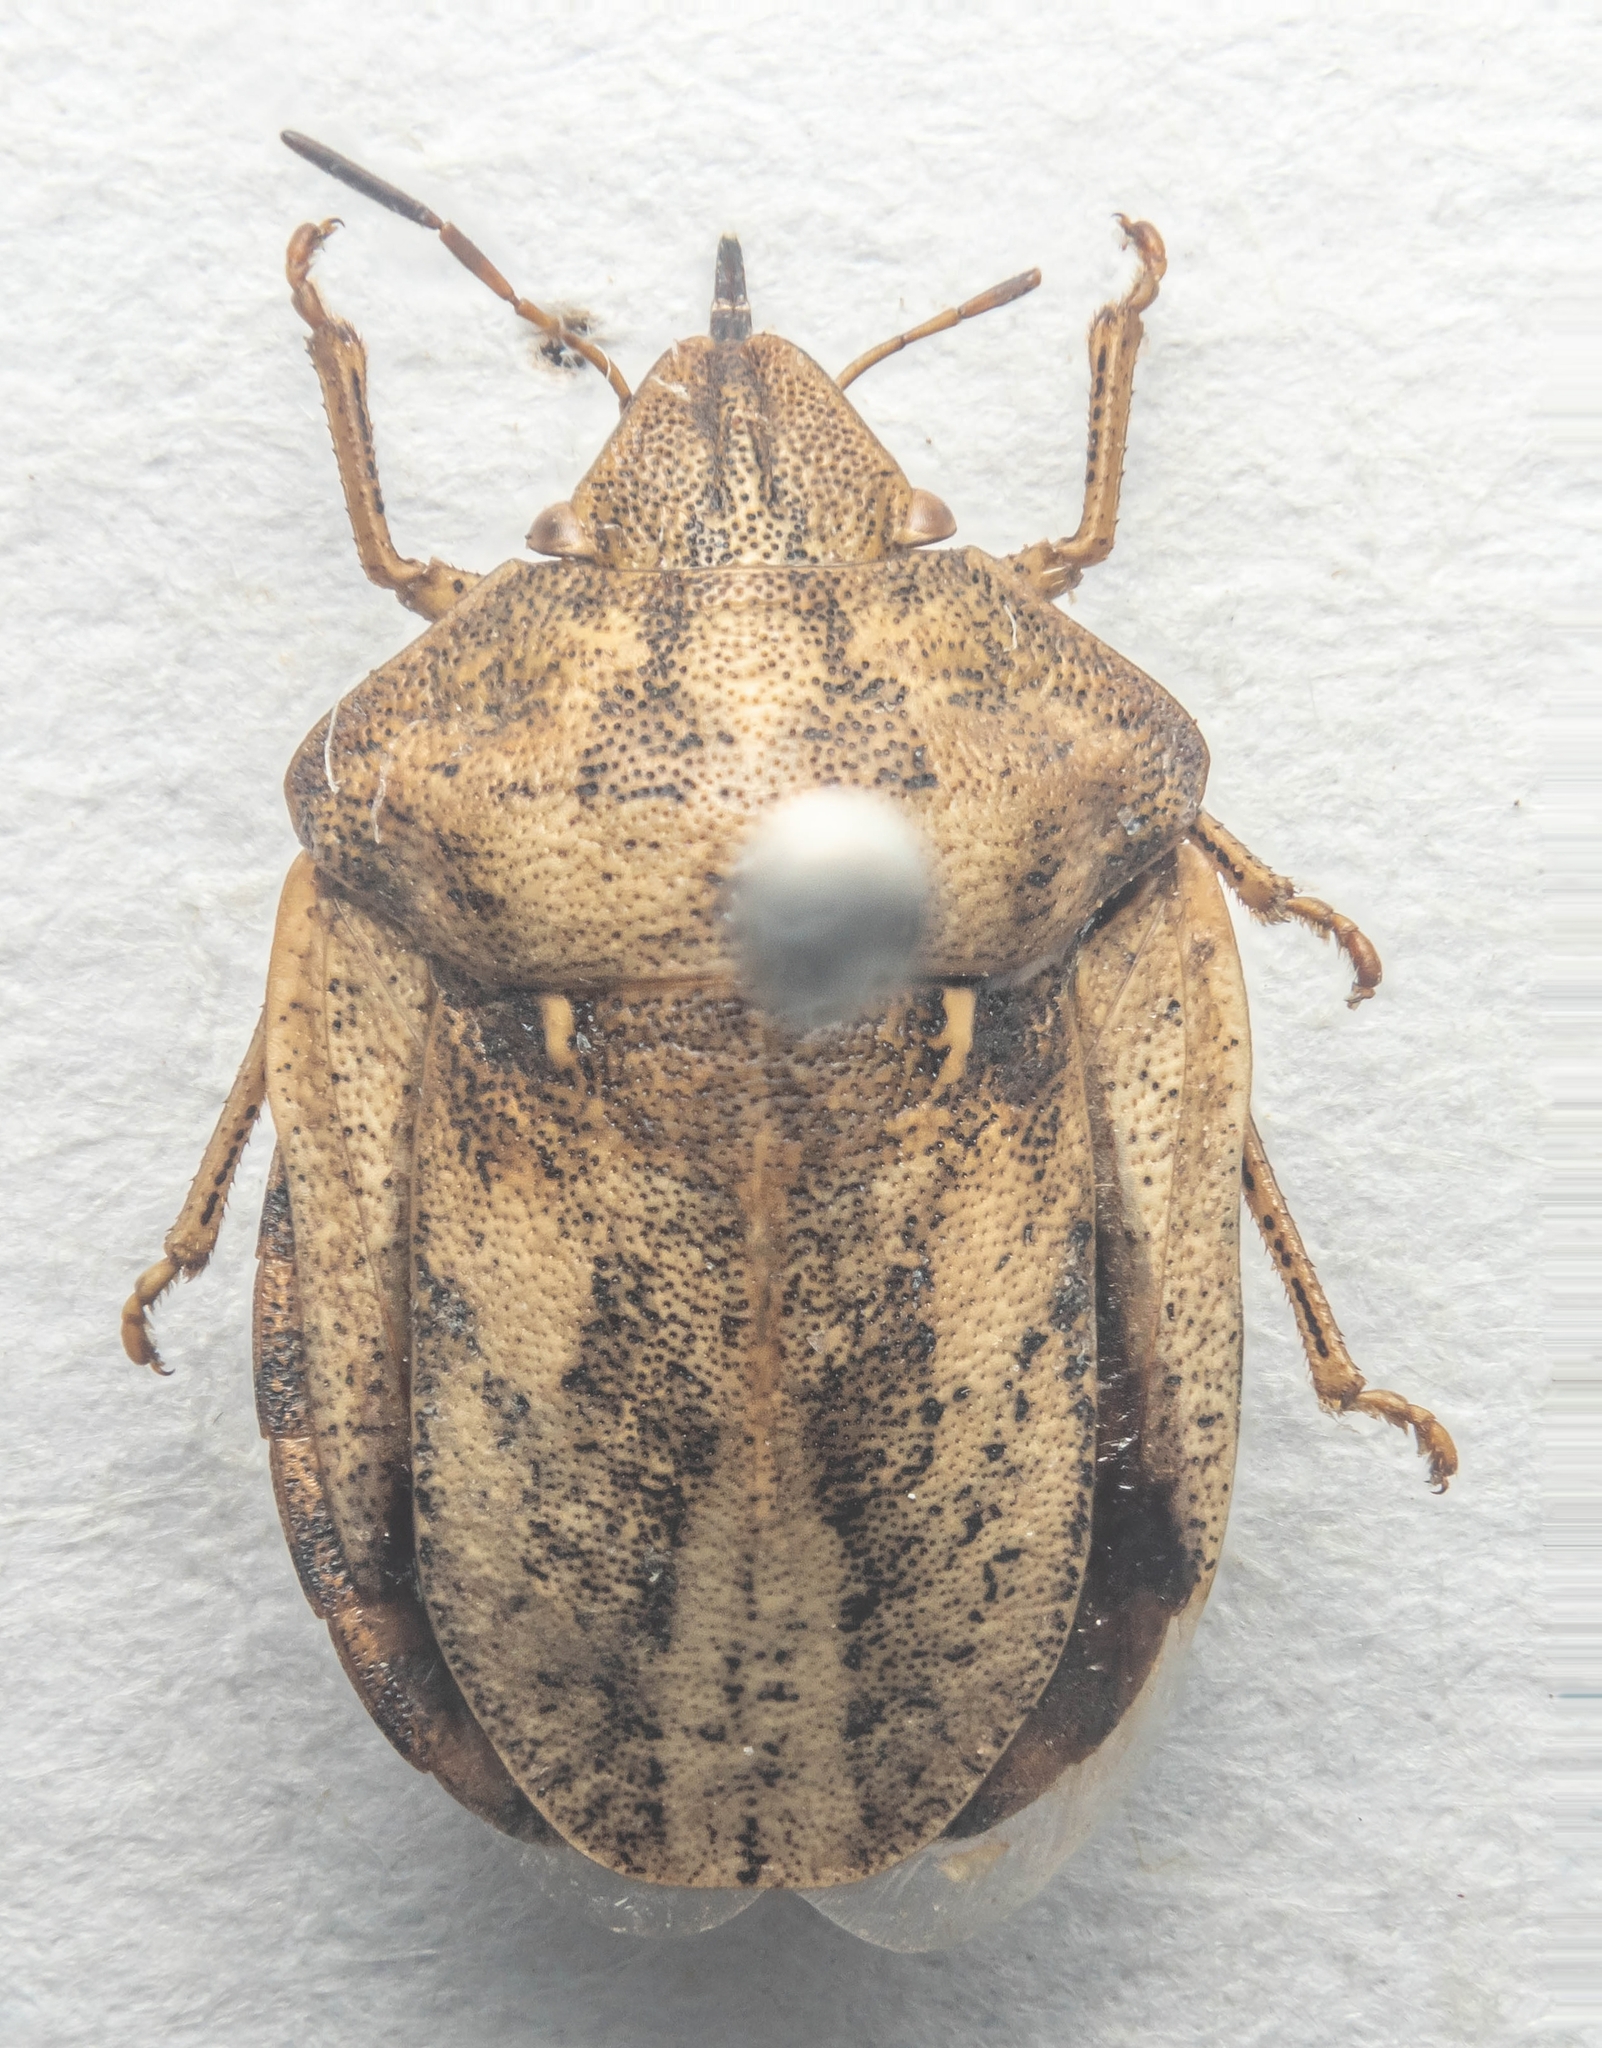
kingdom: Animalia
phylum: Arthropoda
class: Insecta
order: Hemiptera
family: Scutelleridae
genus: Eurygaster
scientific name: Eurygaster testudinaria
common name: Tortoise bug
